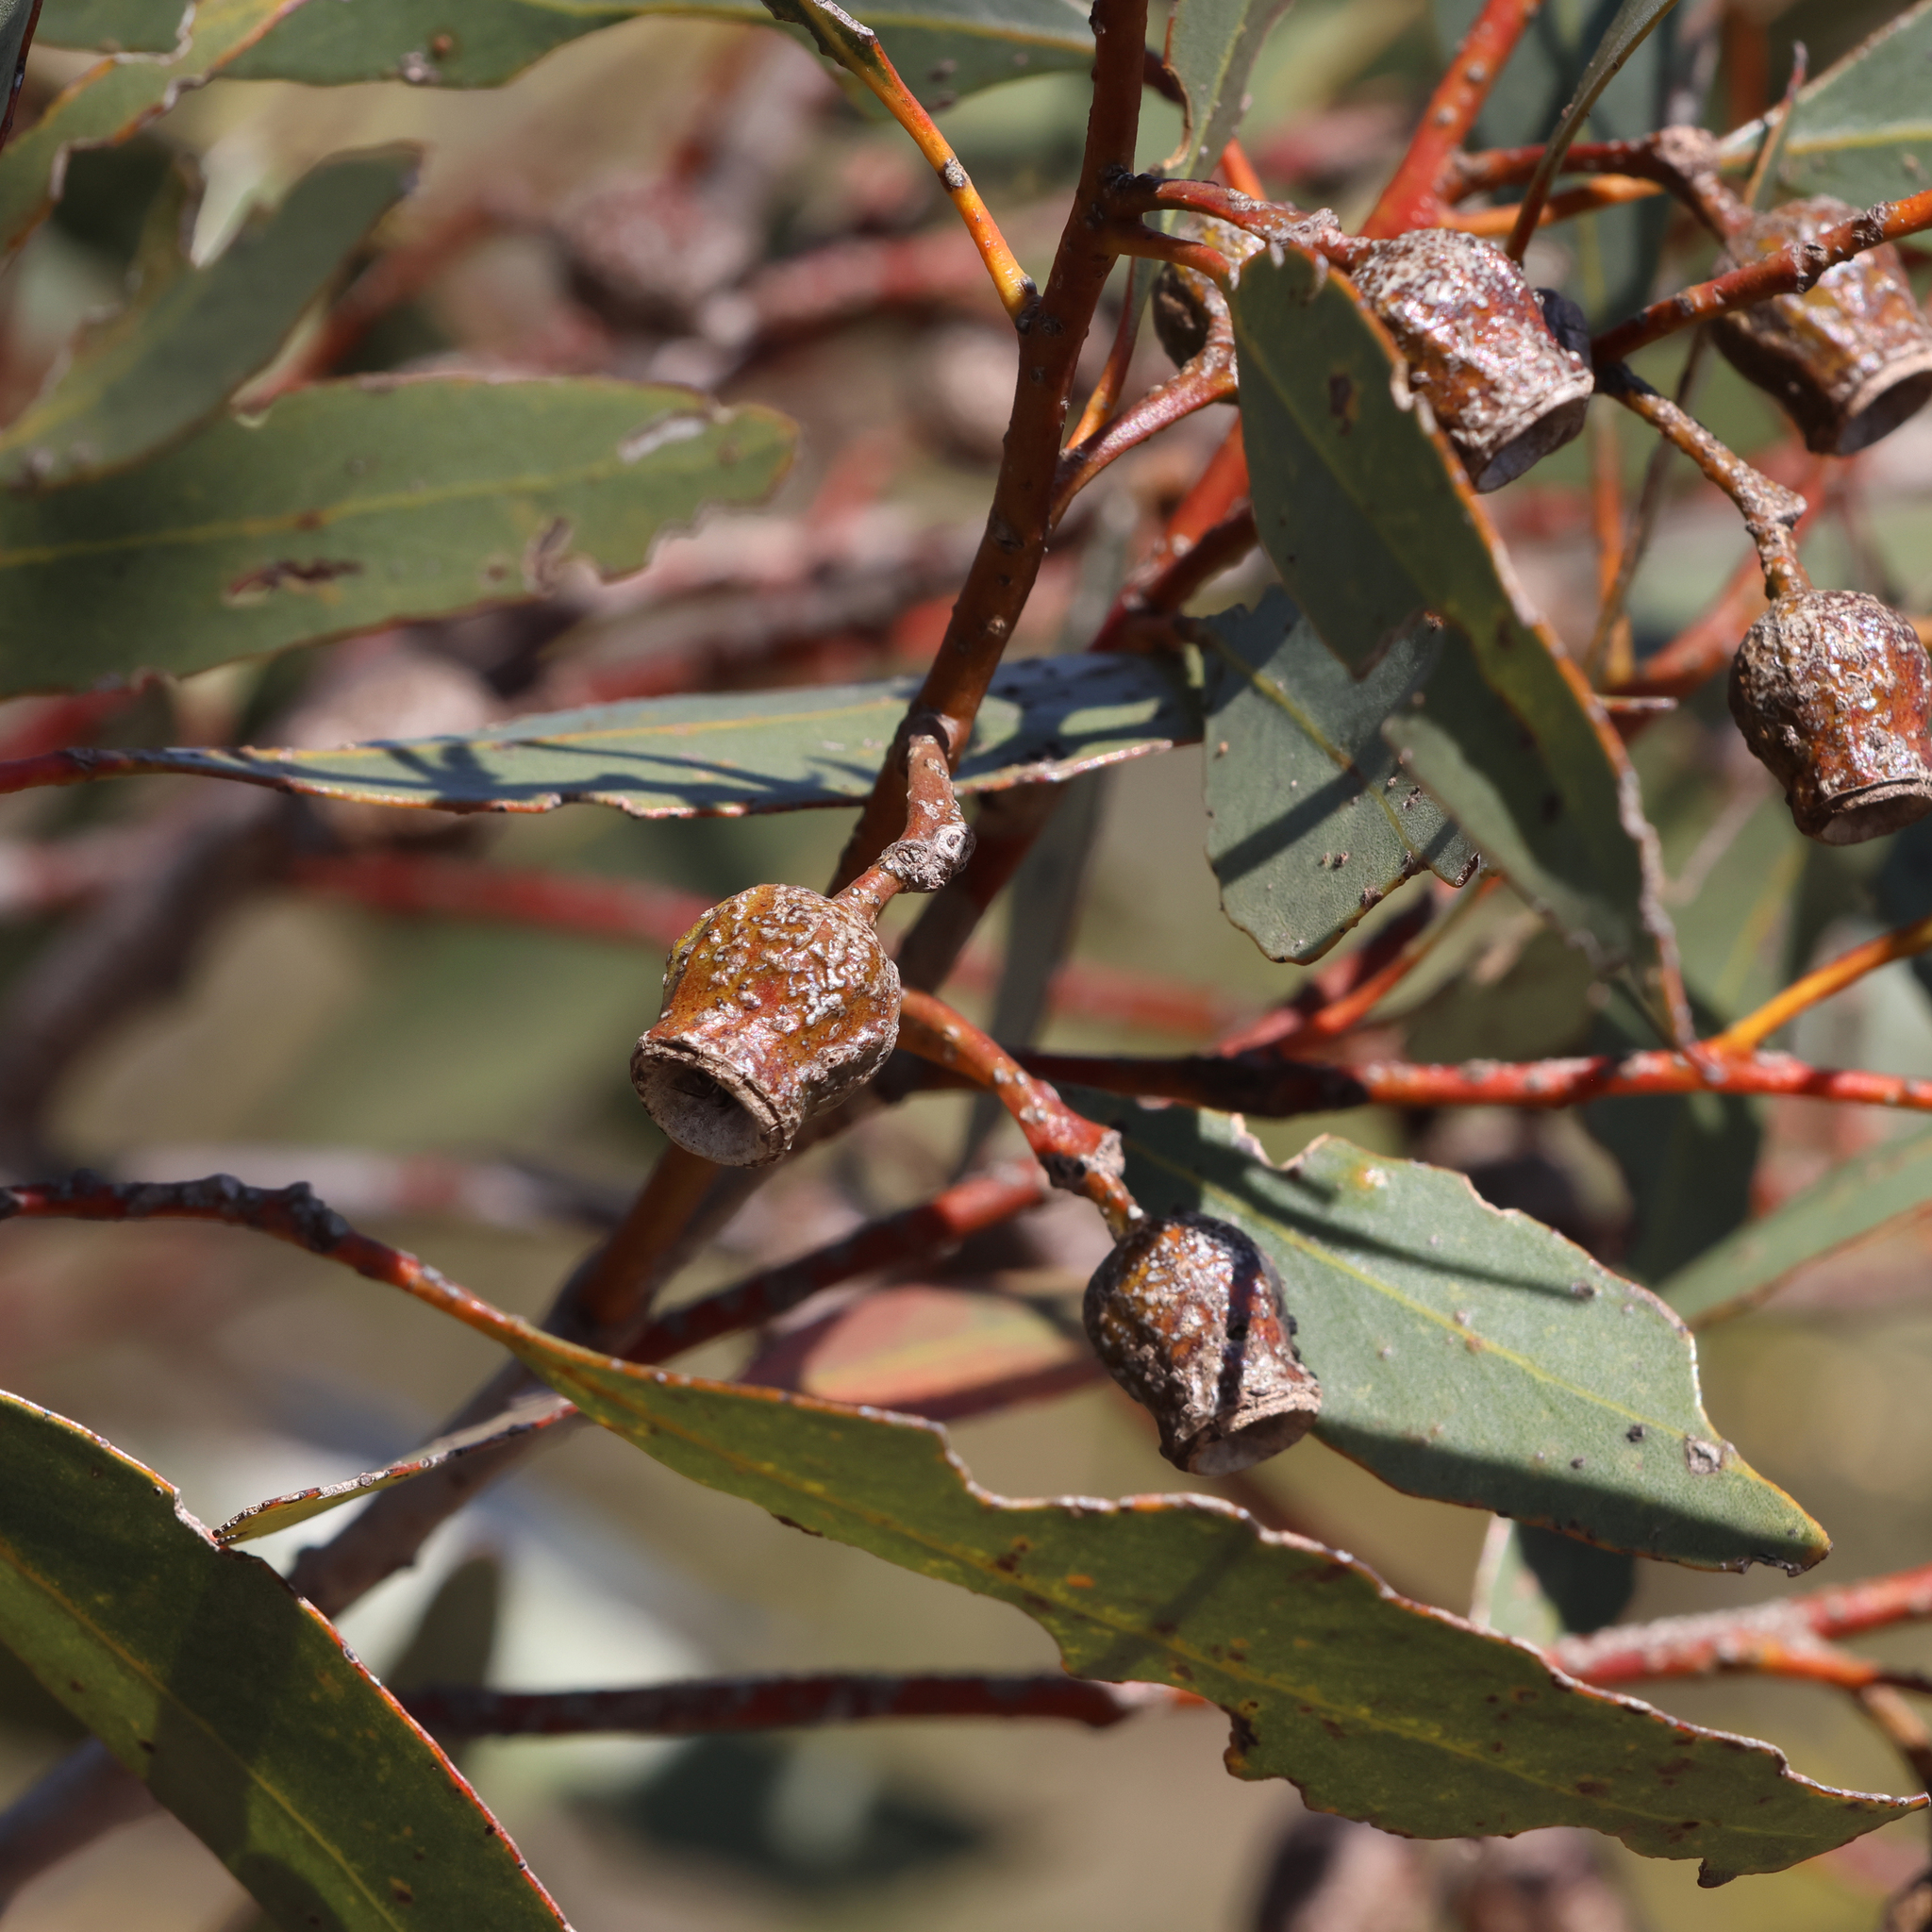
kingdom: Plantae
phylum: Tracheophyta
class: Magnoliopsida
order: Myrtales
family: Myrtaceae
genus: Eucalyptus
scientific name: Eucalyptus incrassata
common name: Ridge-fruit mallee
